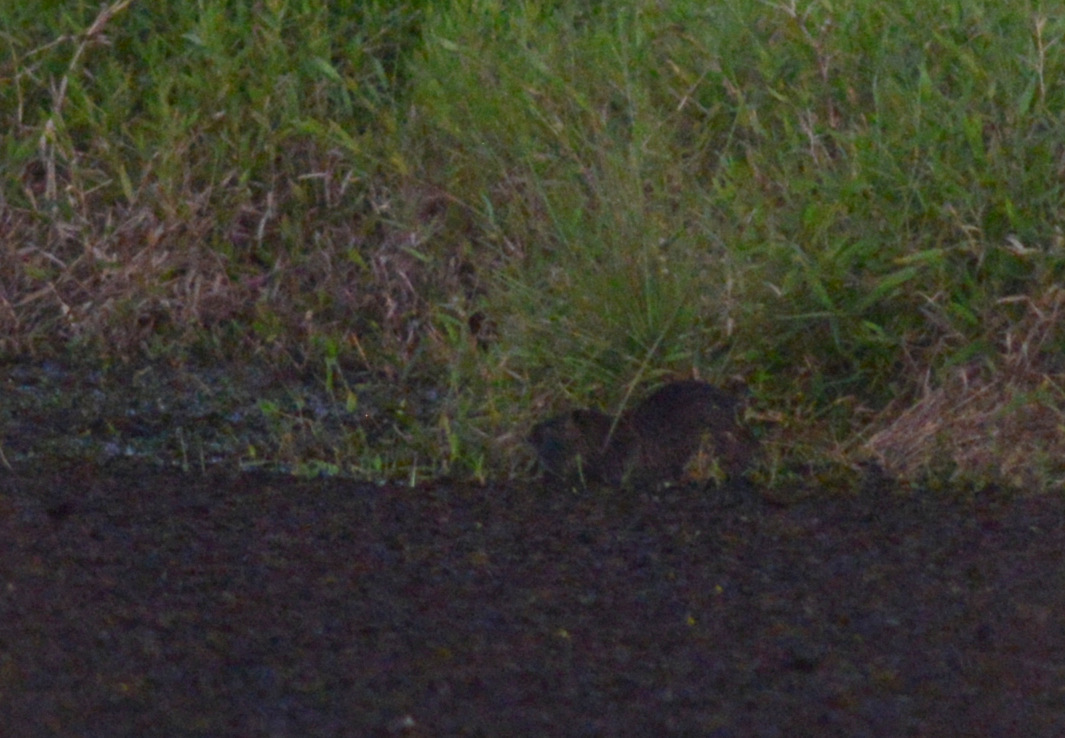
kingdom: Animalia
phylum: Chordata
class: Mammalia
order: Rodentia
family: Myocastoridae
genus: Myocastor
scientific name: Myocastor coypus
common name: Coypu
